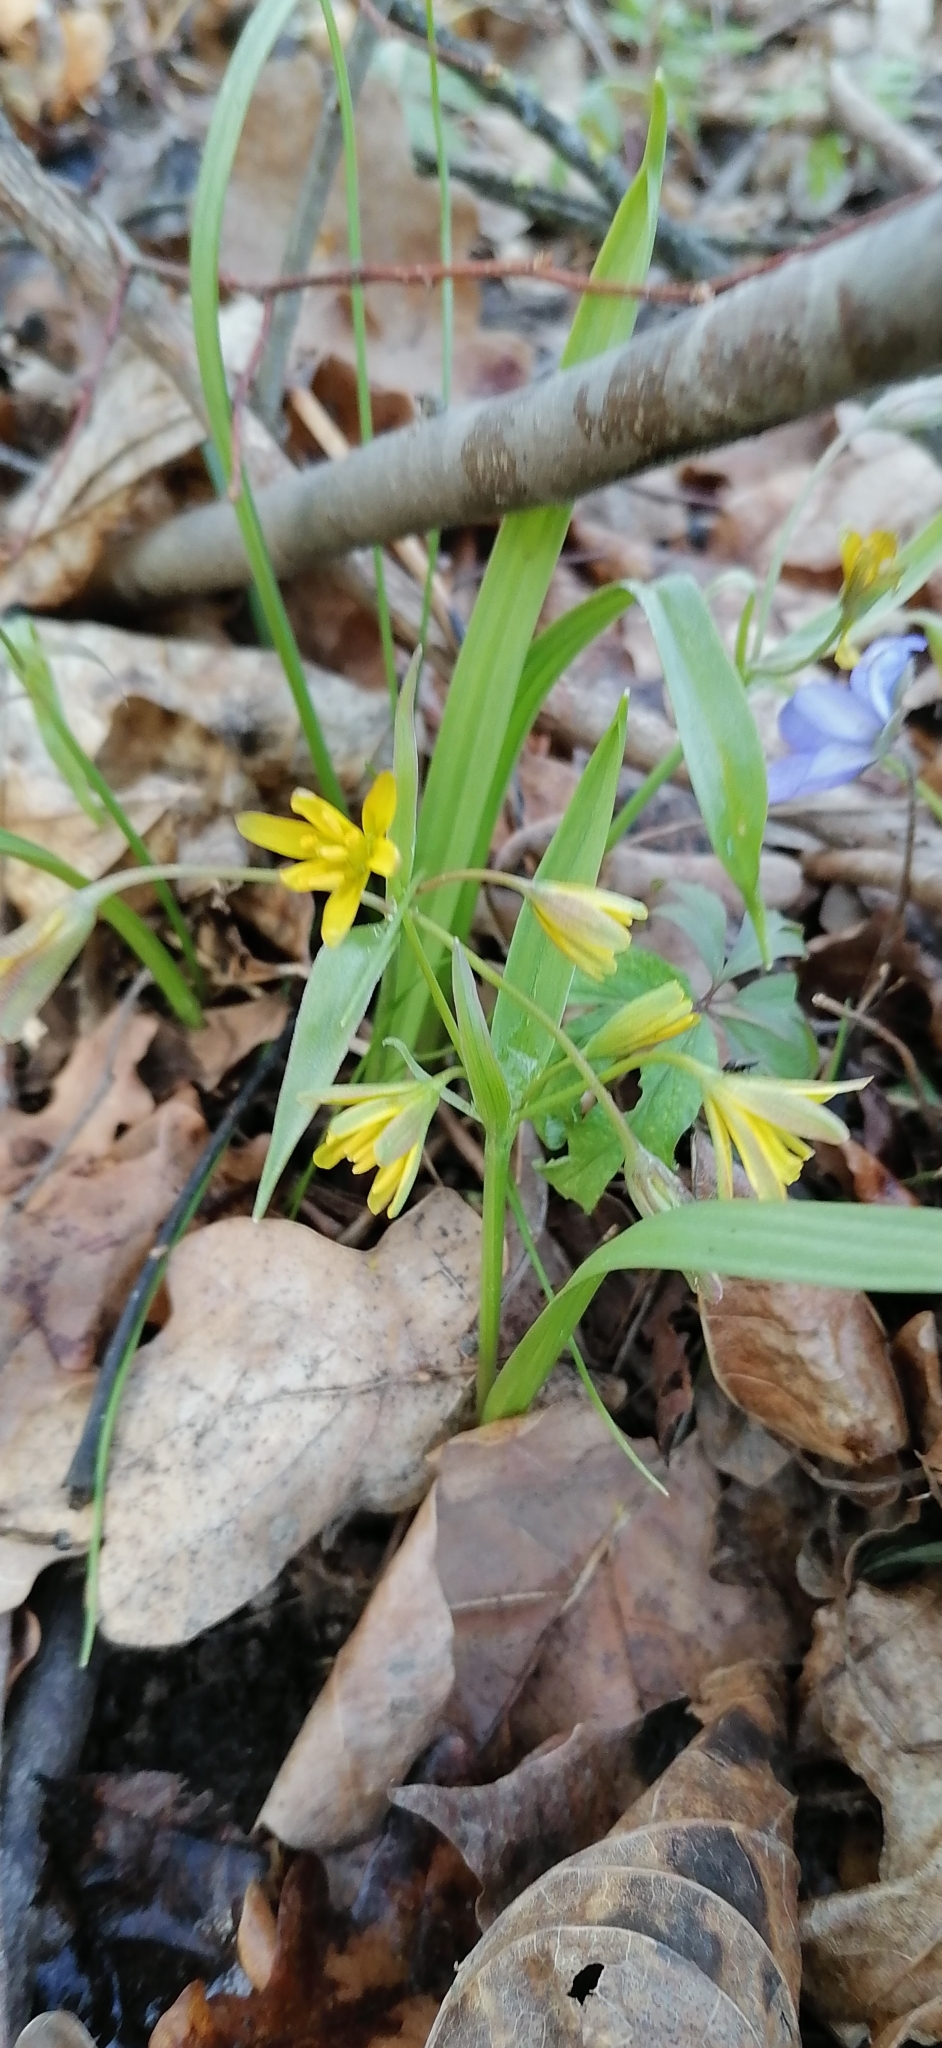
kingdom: Plantae
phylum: Tracheophyta
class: Liliopsida
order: Liliales
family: Liliaceae
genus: Gagea
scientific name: Gagea lutea
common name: Yellow star-of-bethlehem
